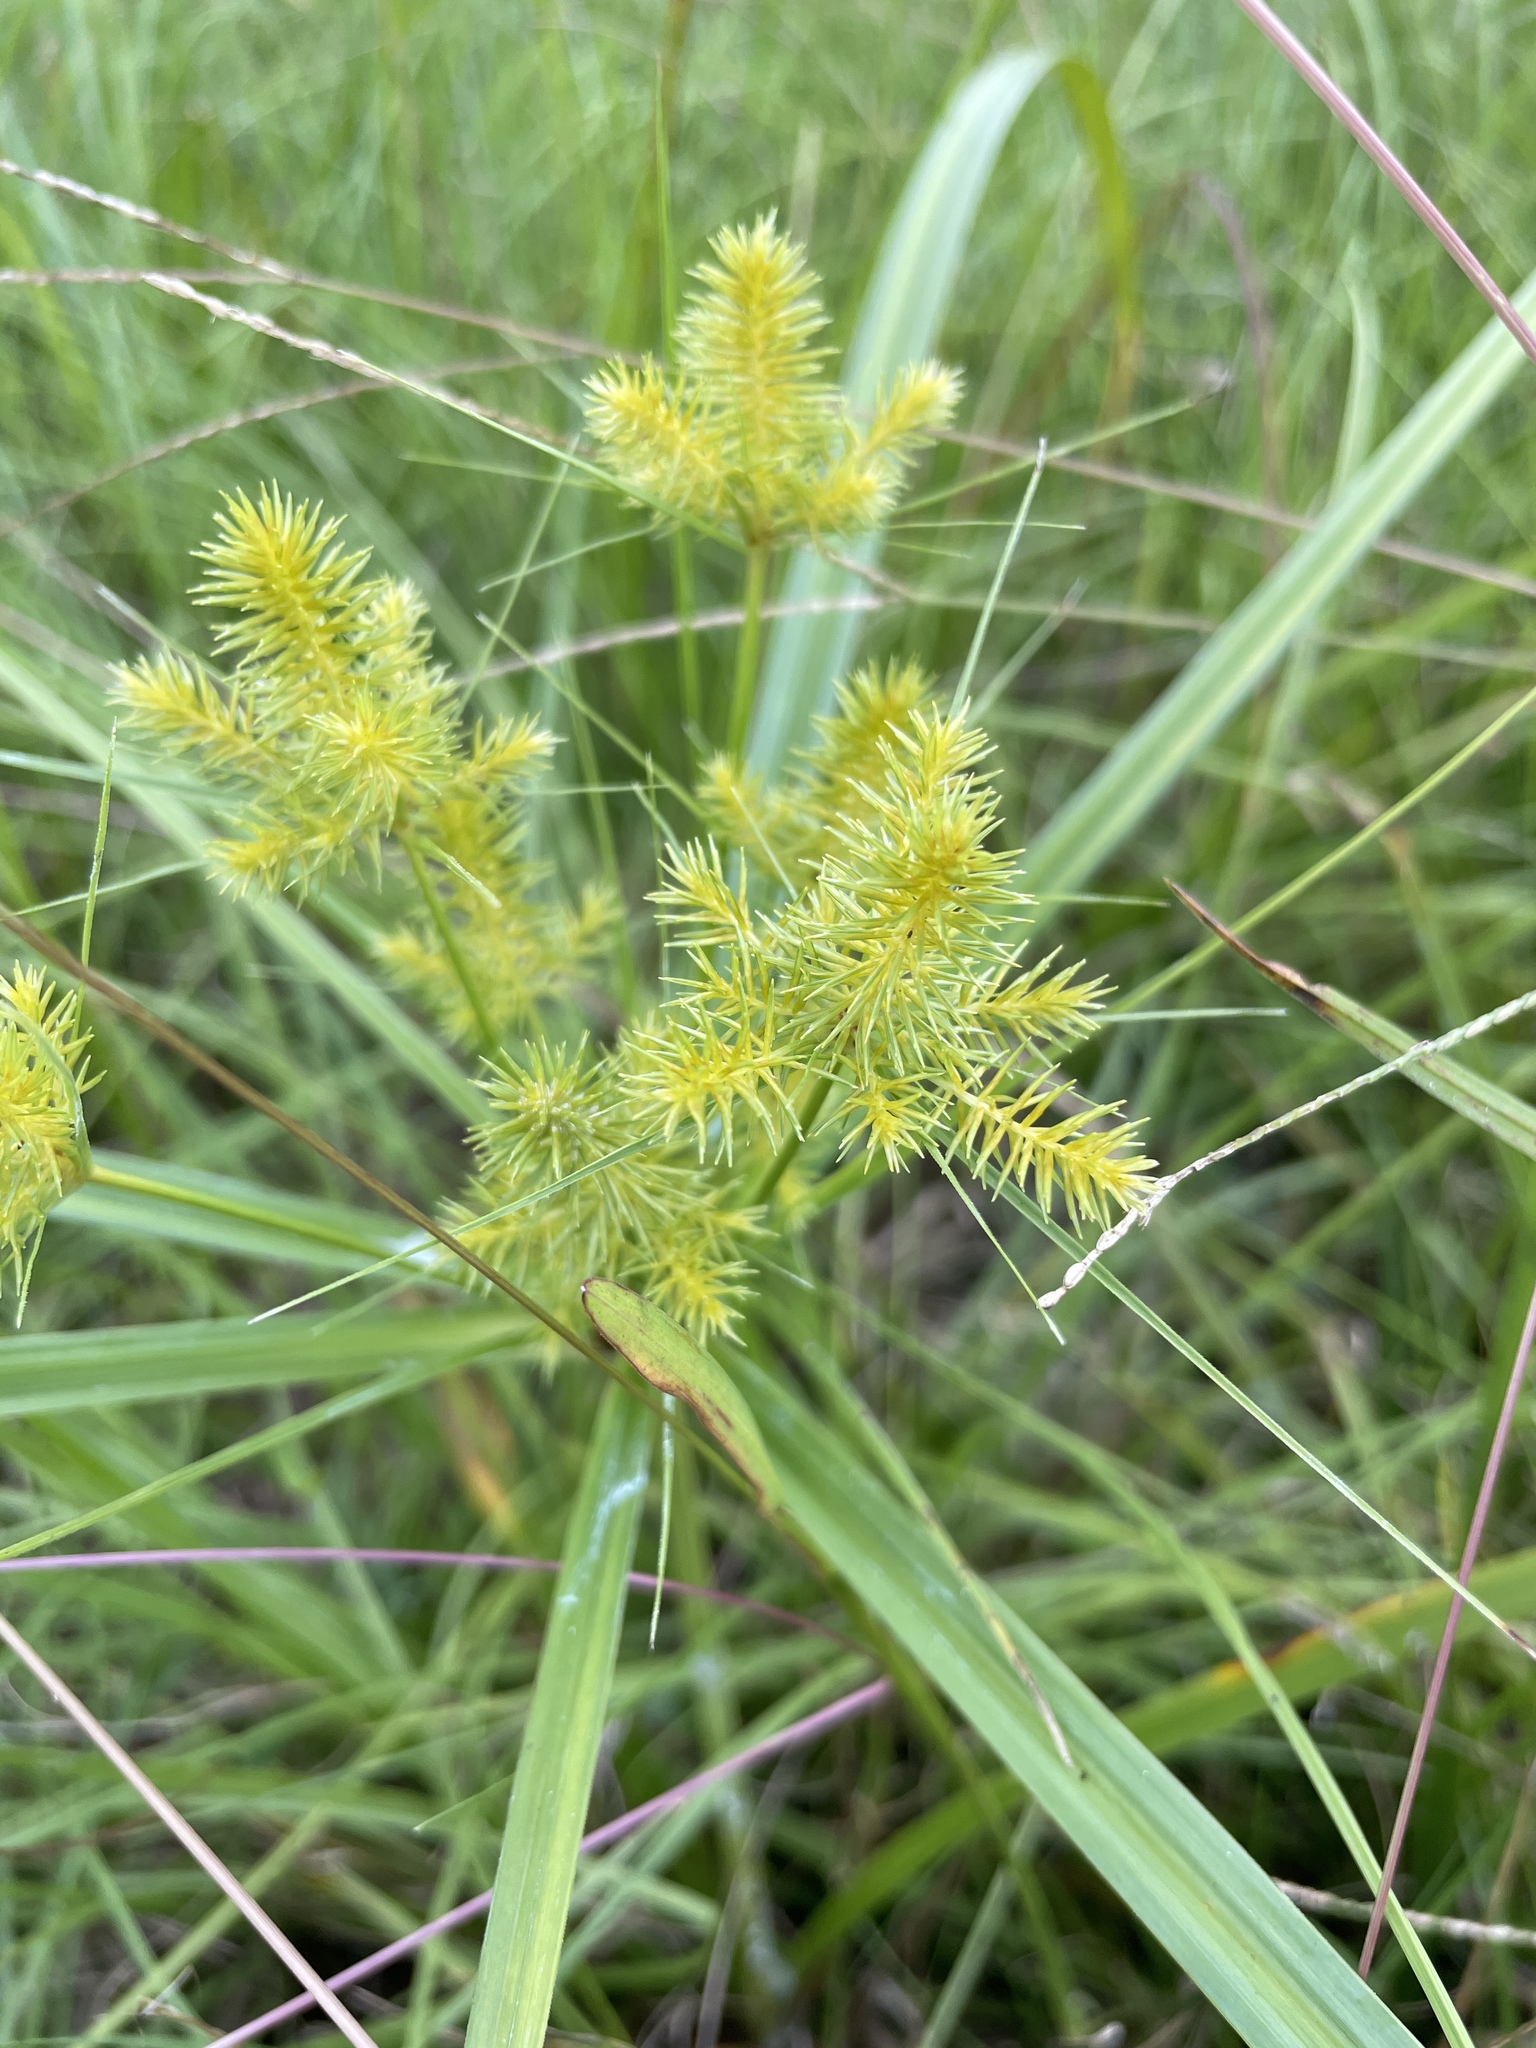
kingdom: Plantae
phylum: Tracheophyta
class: Liliopsida
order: Poales
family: Cyperaceae
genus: Cyperus
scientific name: Cyperus strigosus
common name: False nutsedge
